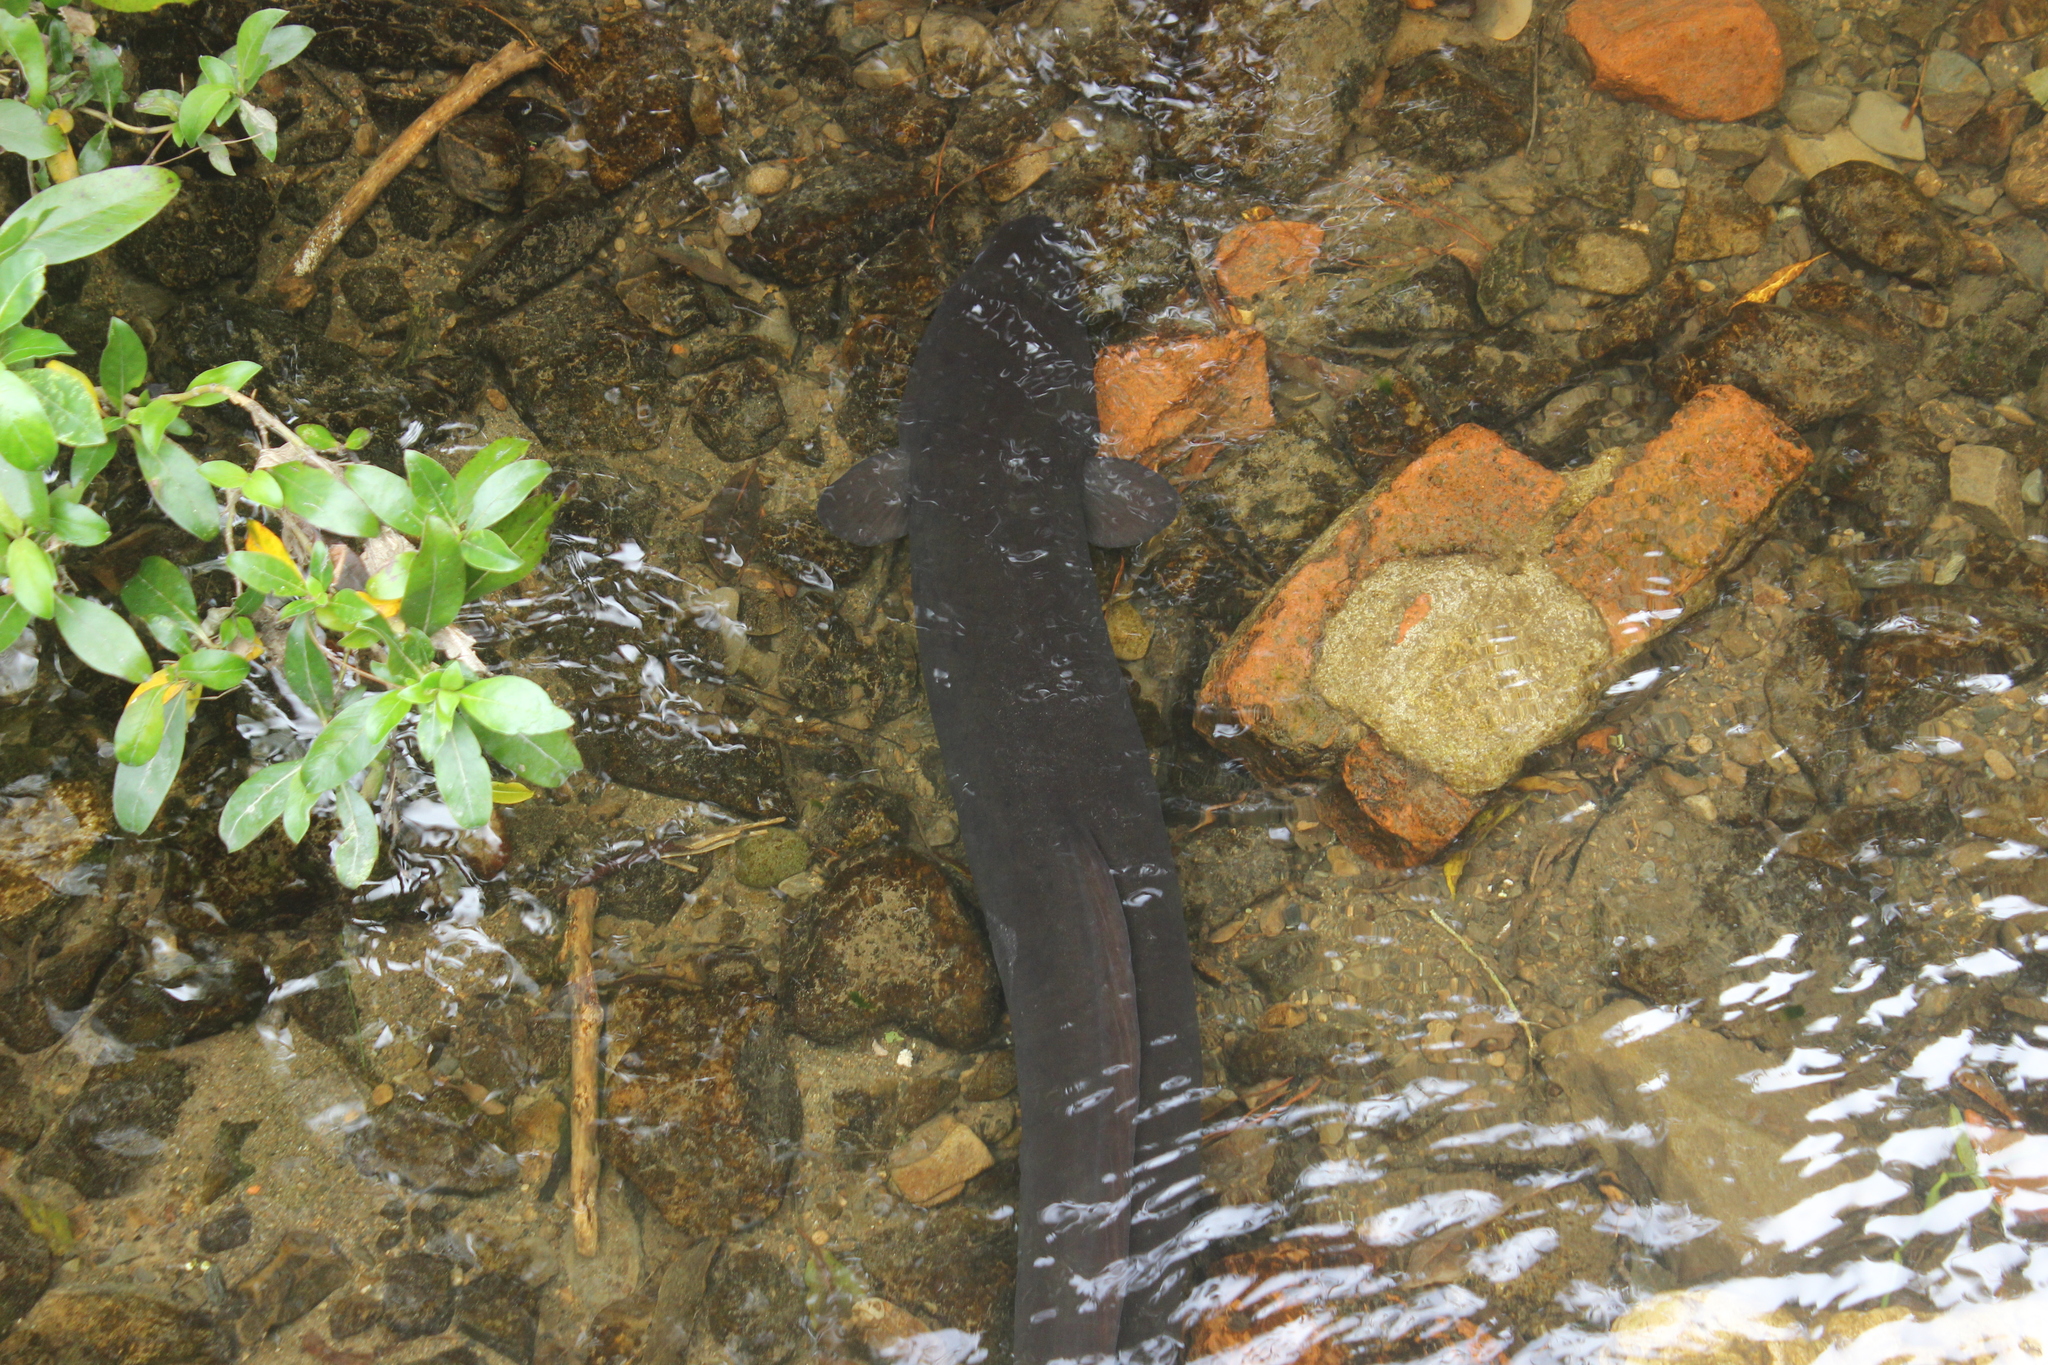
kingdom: Animalia
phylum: Chordata
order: Anguilliformes
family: Anguillidae
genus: Anguilla
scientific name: Anguilla dieffenbachii
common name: New zealand longfin eel
